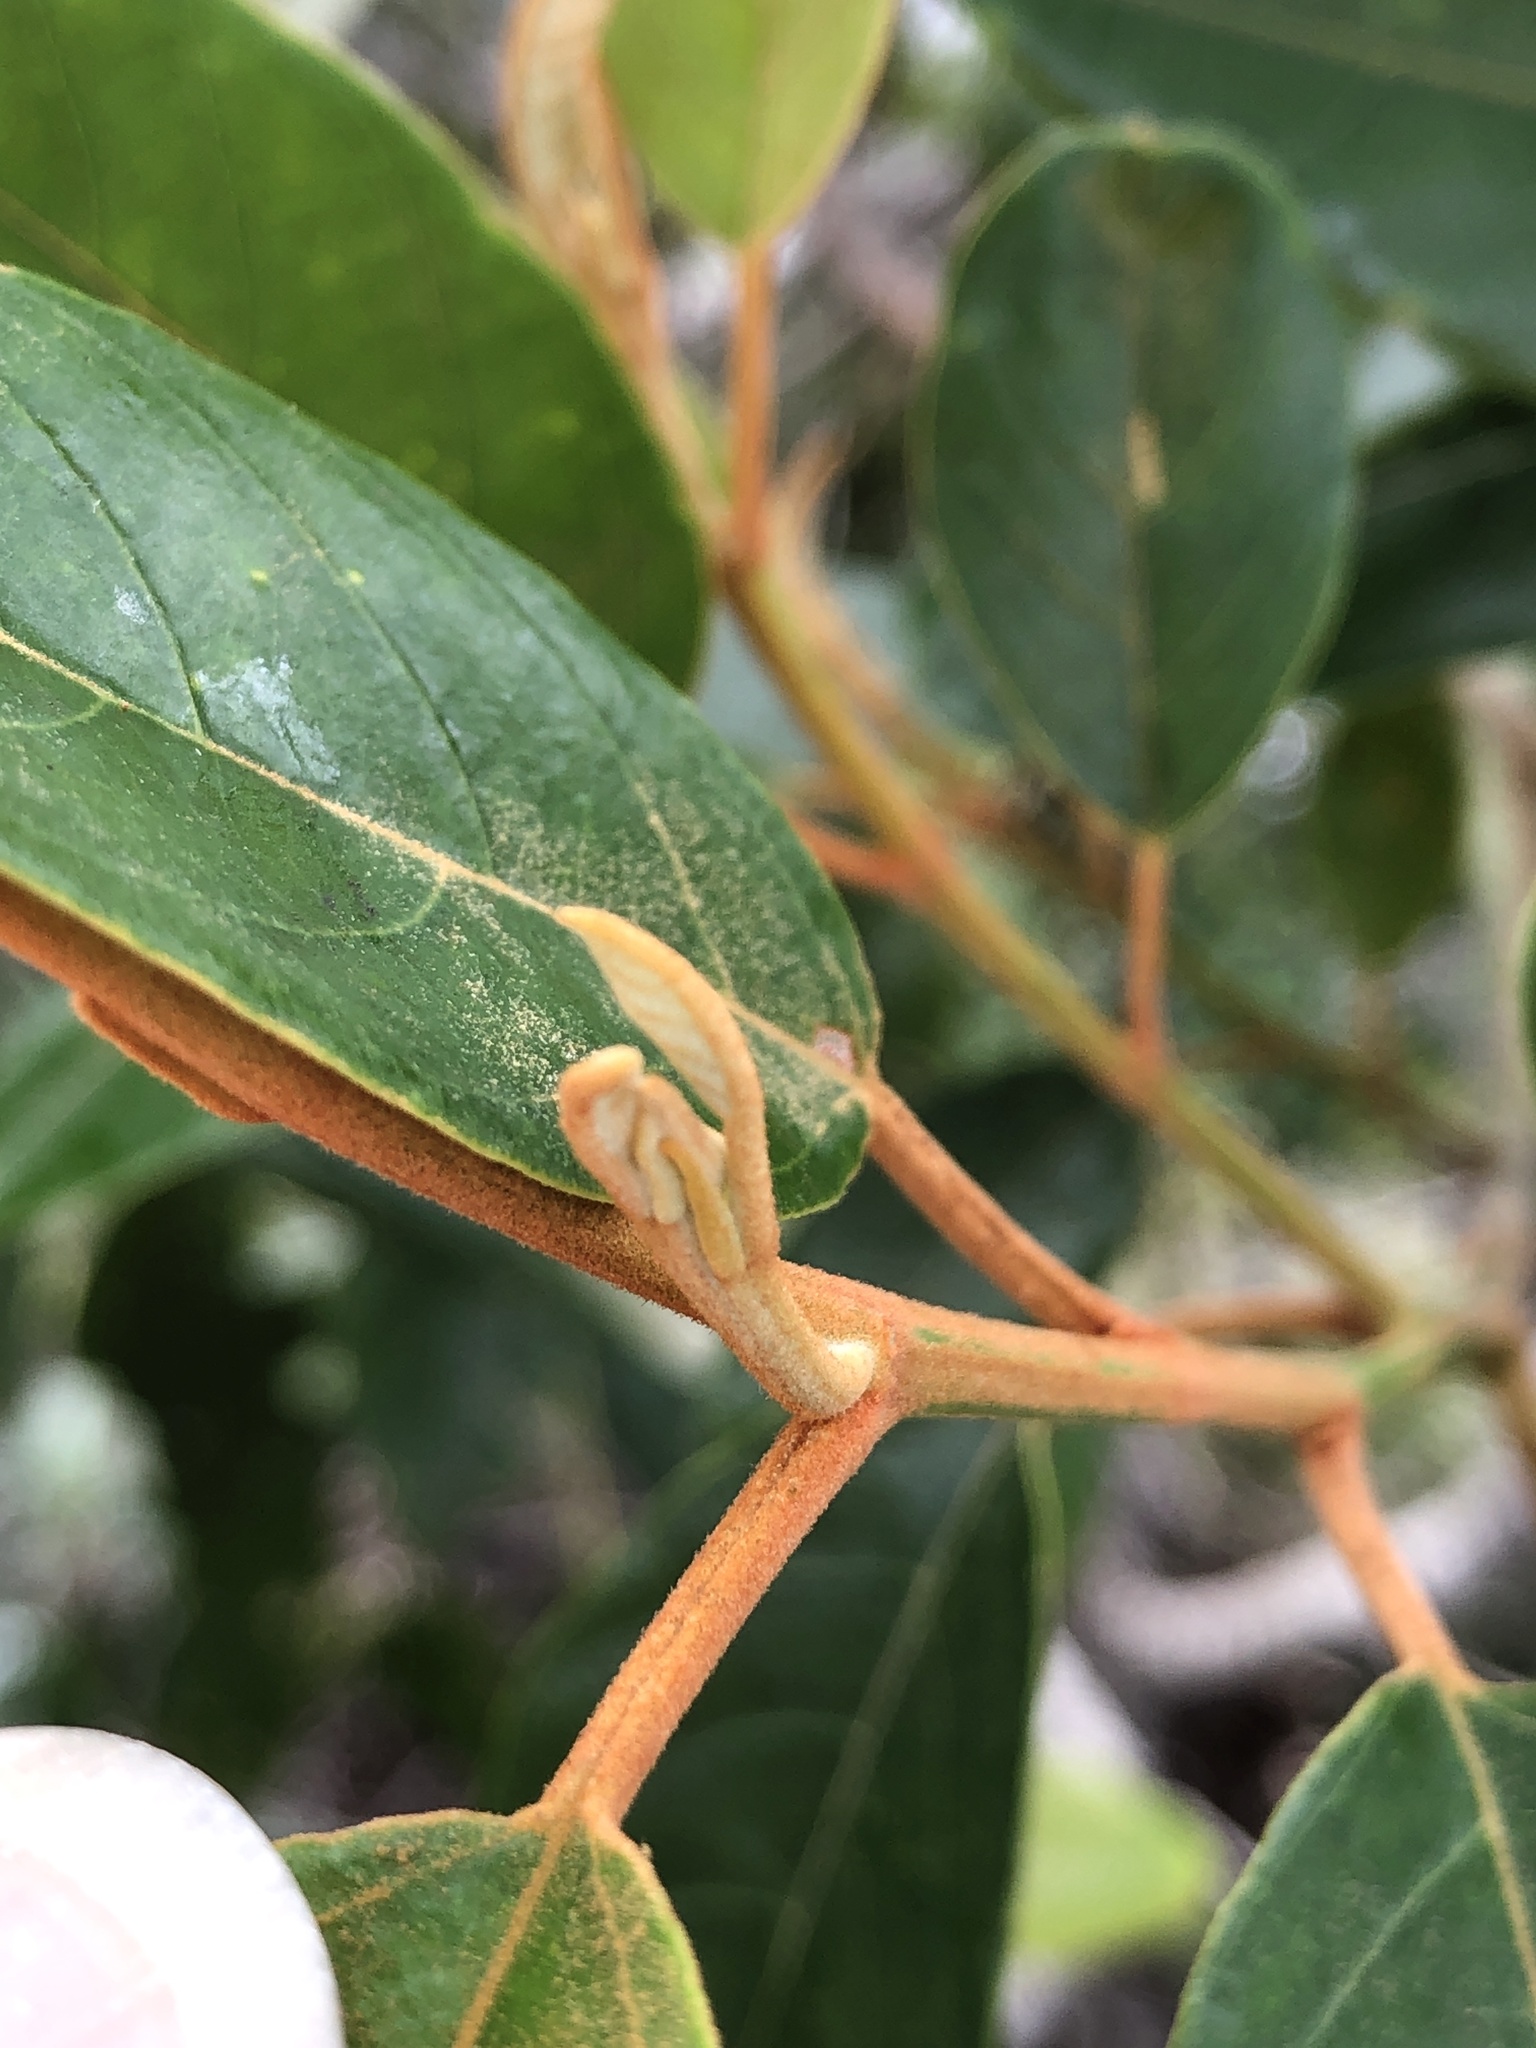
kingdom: Plantae
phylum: Tracheophyta
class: Magnoliopsida
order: Rosales
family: Rhamnaceae
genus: Alphitonia
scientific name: Alphitonia excelsa
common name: Red ash
